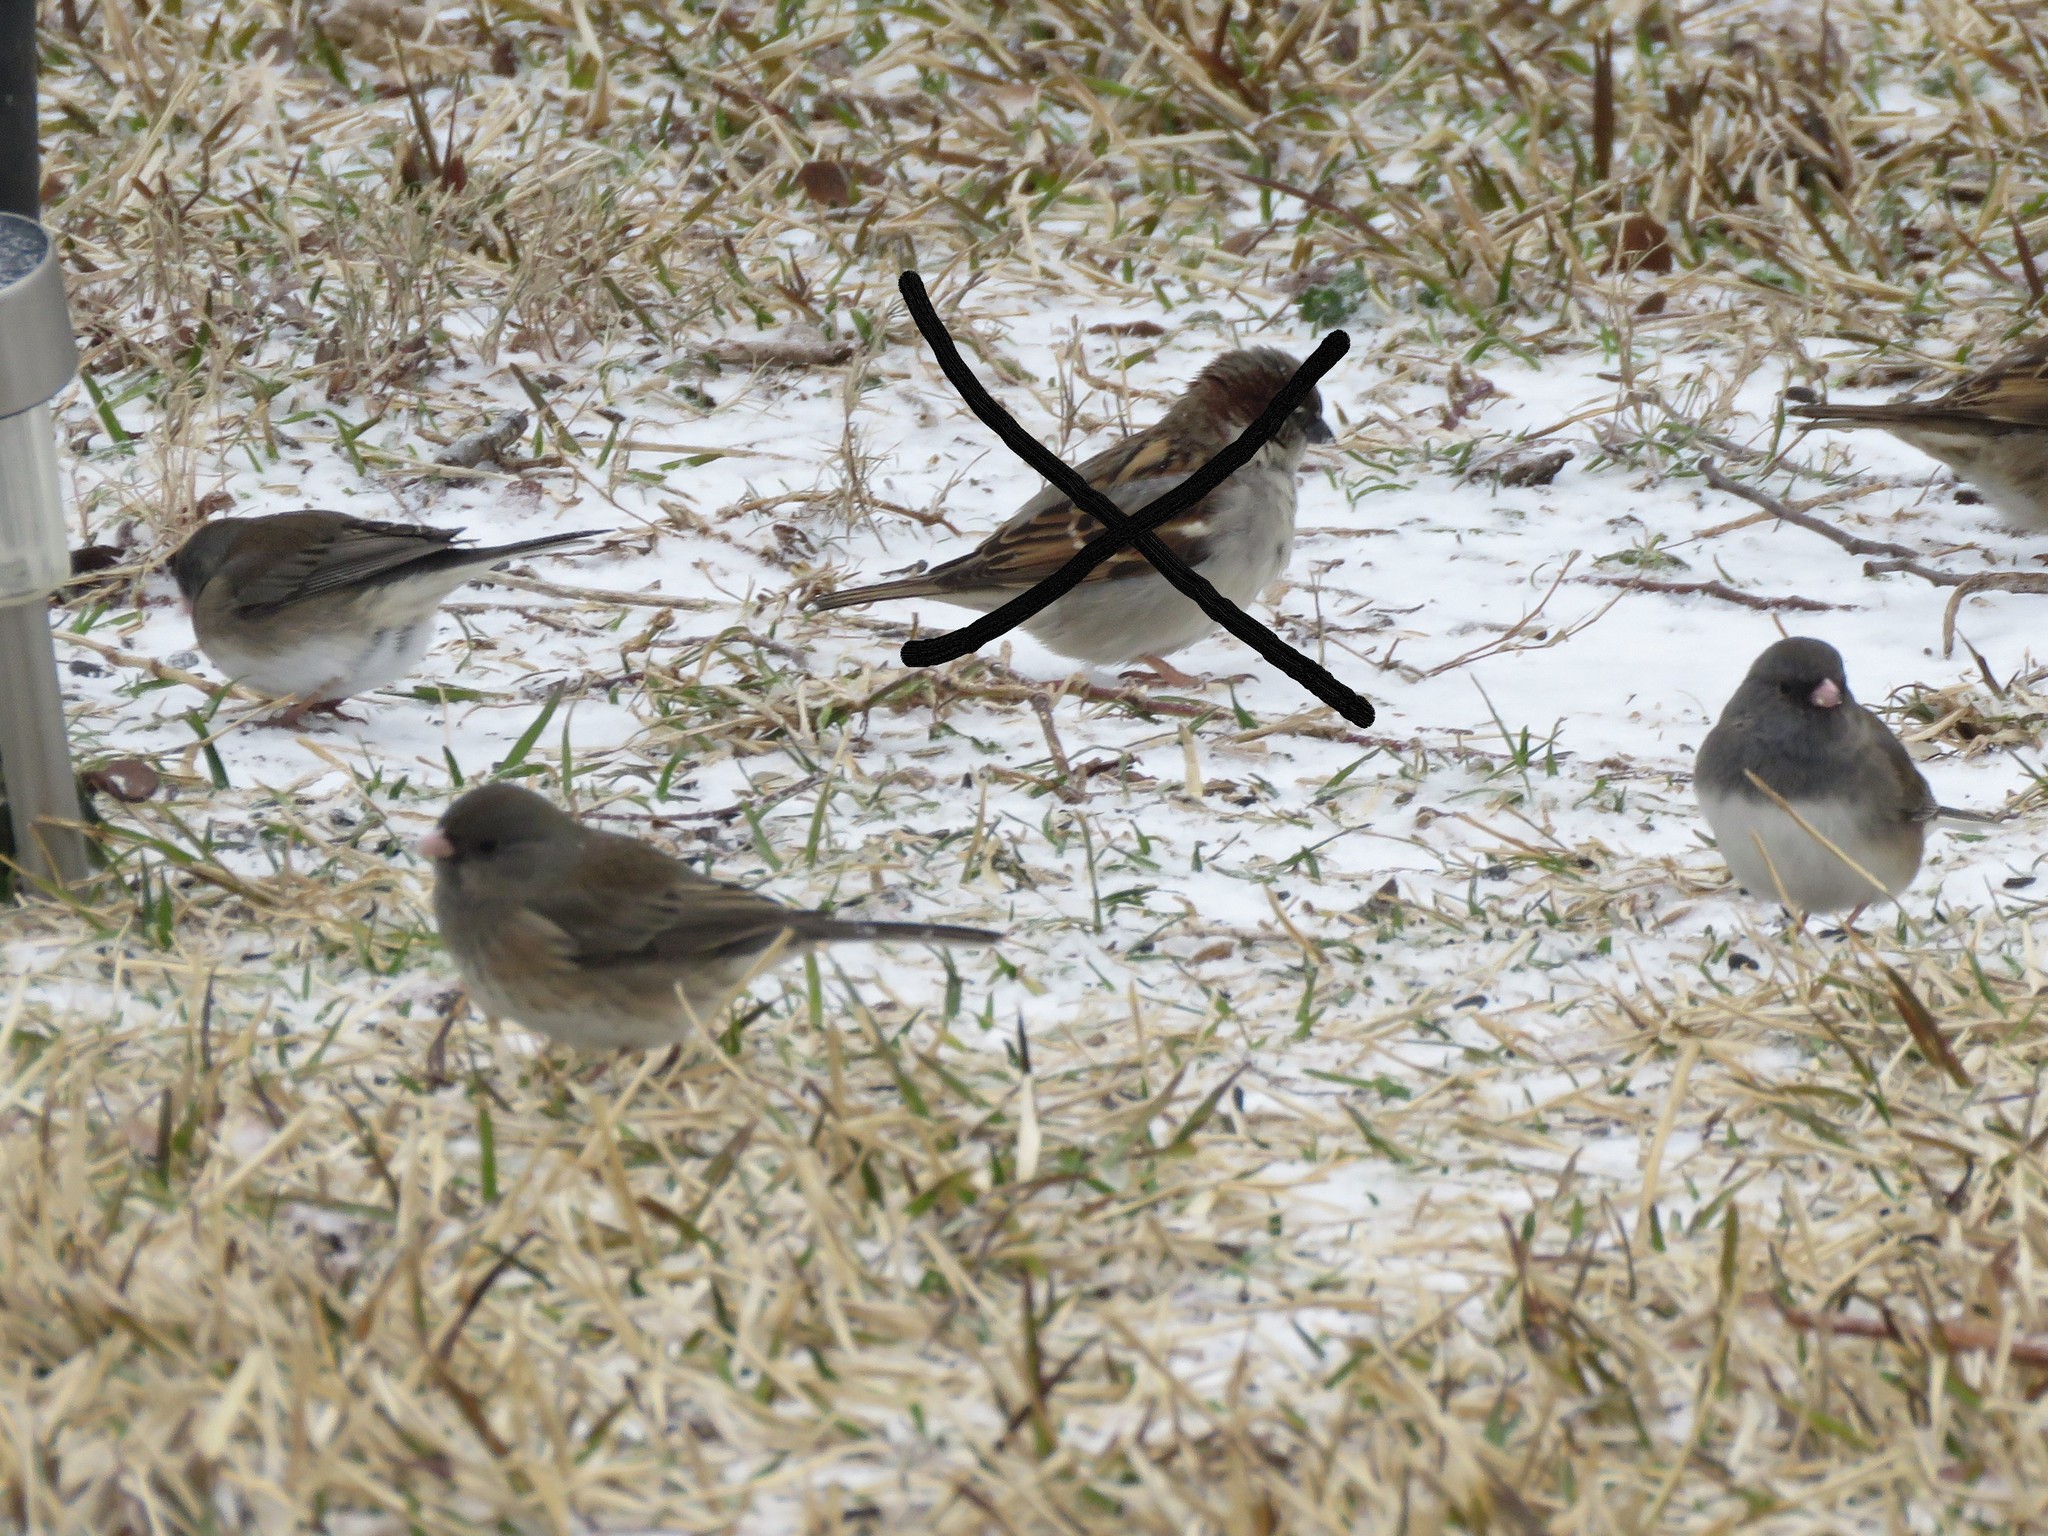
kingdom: Animalia
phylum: Chordata
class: Aves
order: Passeriformes
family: Passerellidae
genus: Junco
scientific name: Junco hyemalis
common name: Dark-eyed junco
